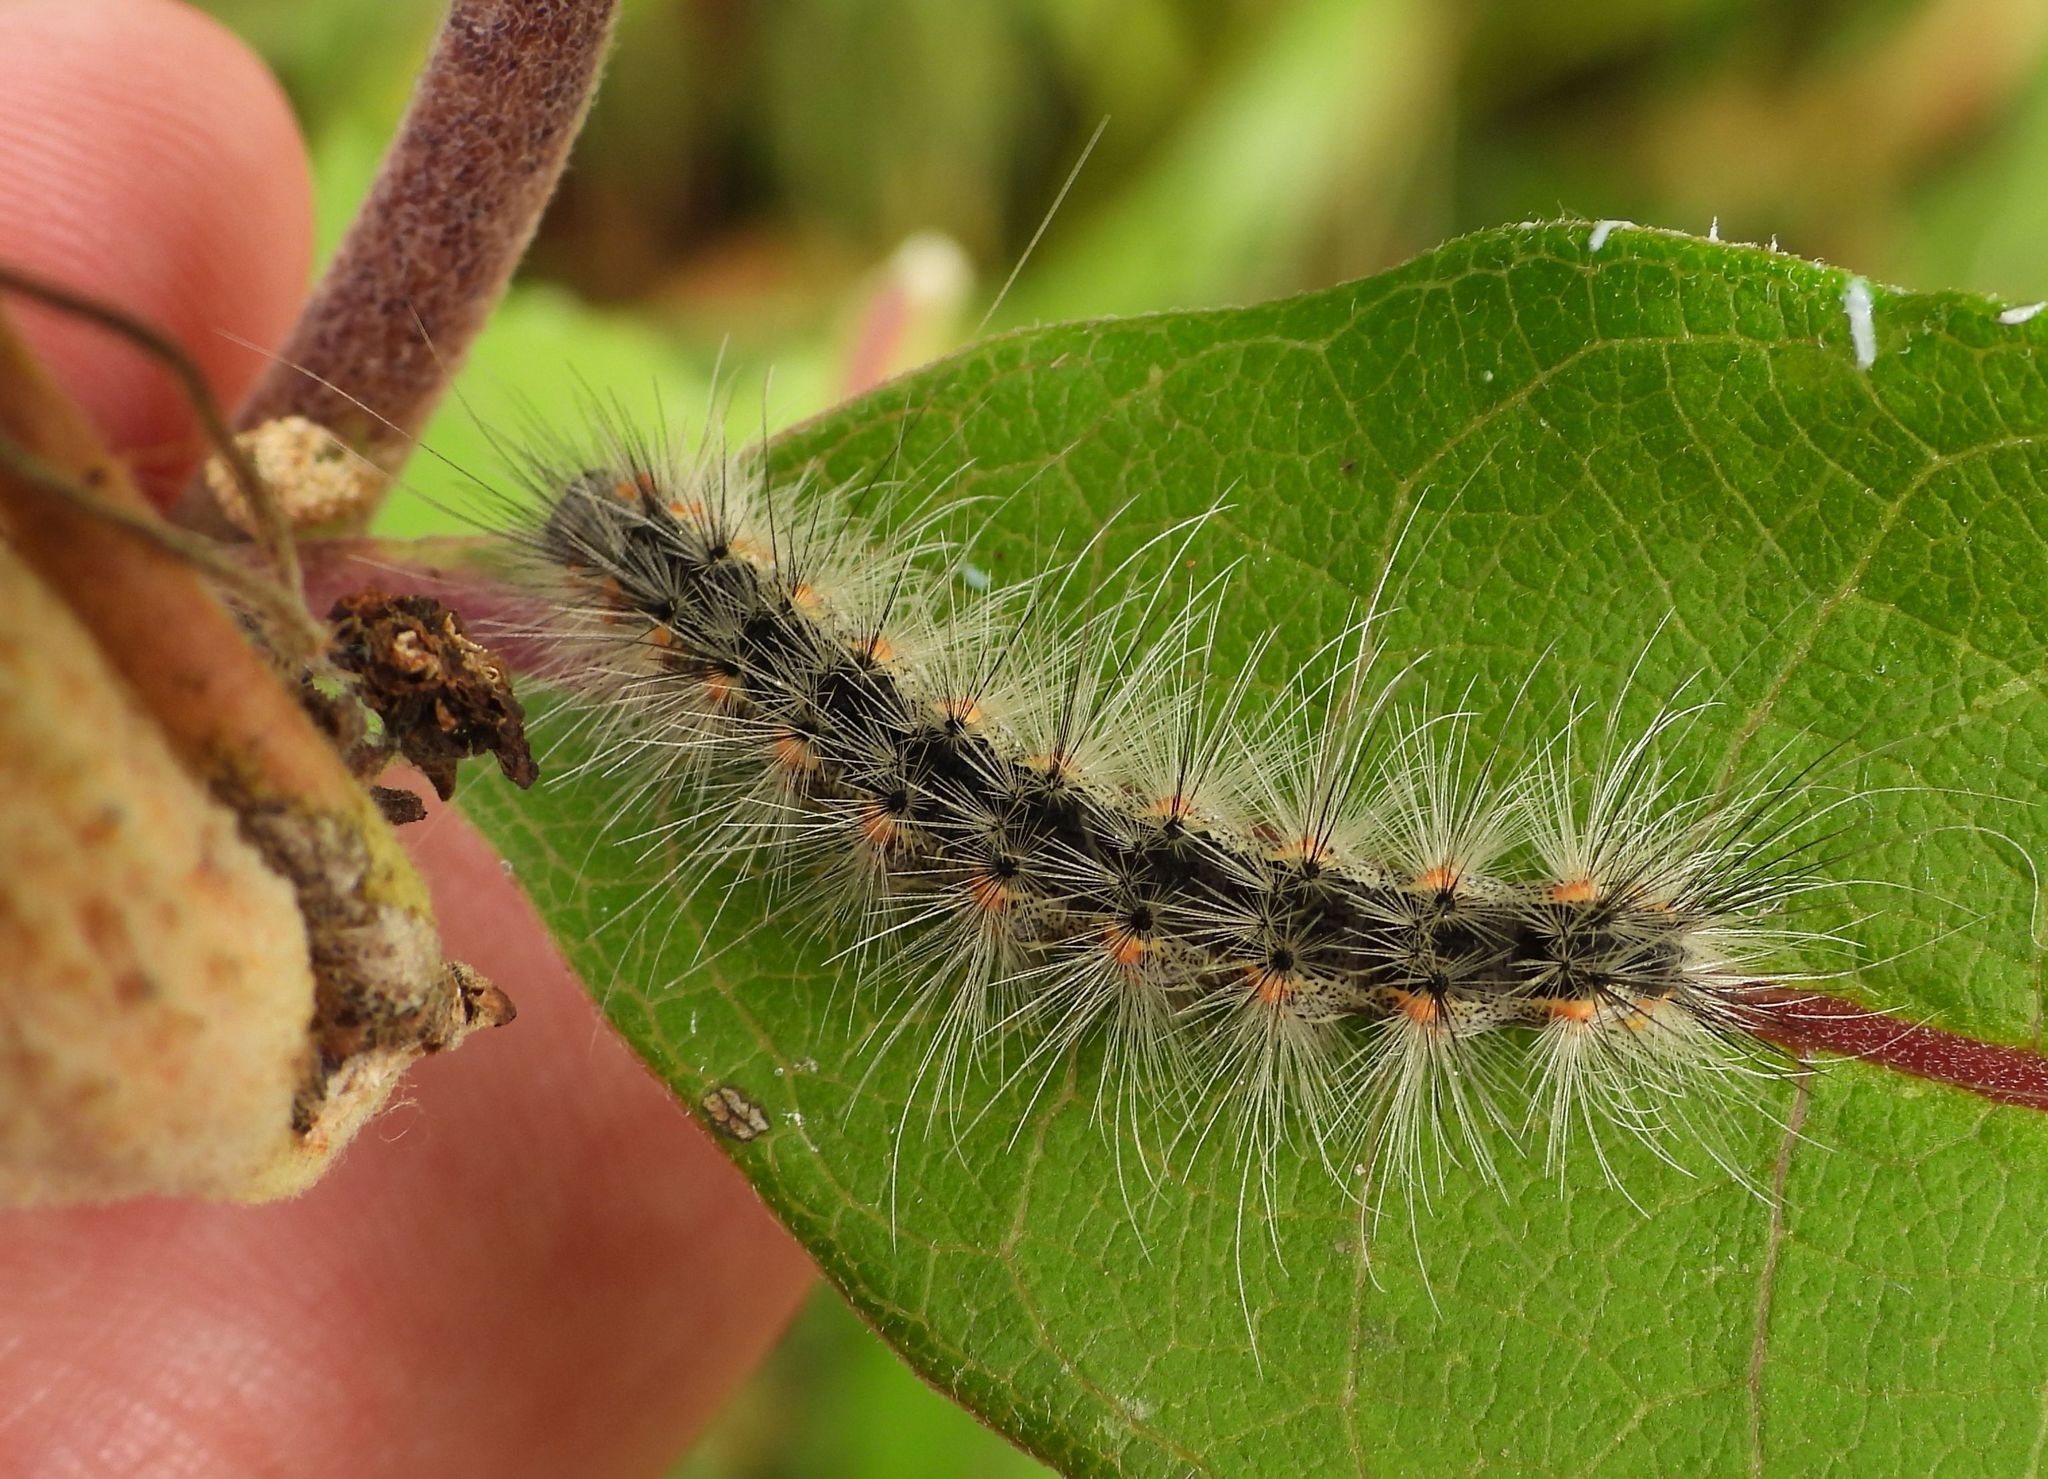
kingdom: Animalia
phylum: Arthropoda
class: Insecta
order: Lepidoptera
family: Erebidae
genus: Hyphantria
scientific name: Hyphantria cunea
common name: American white moth
